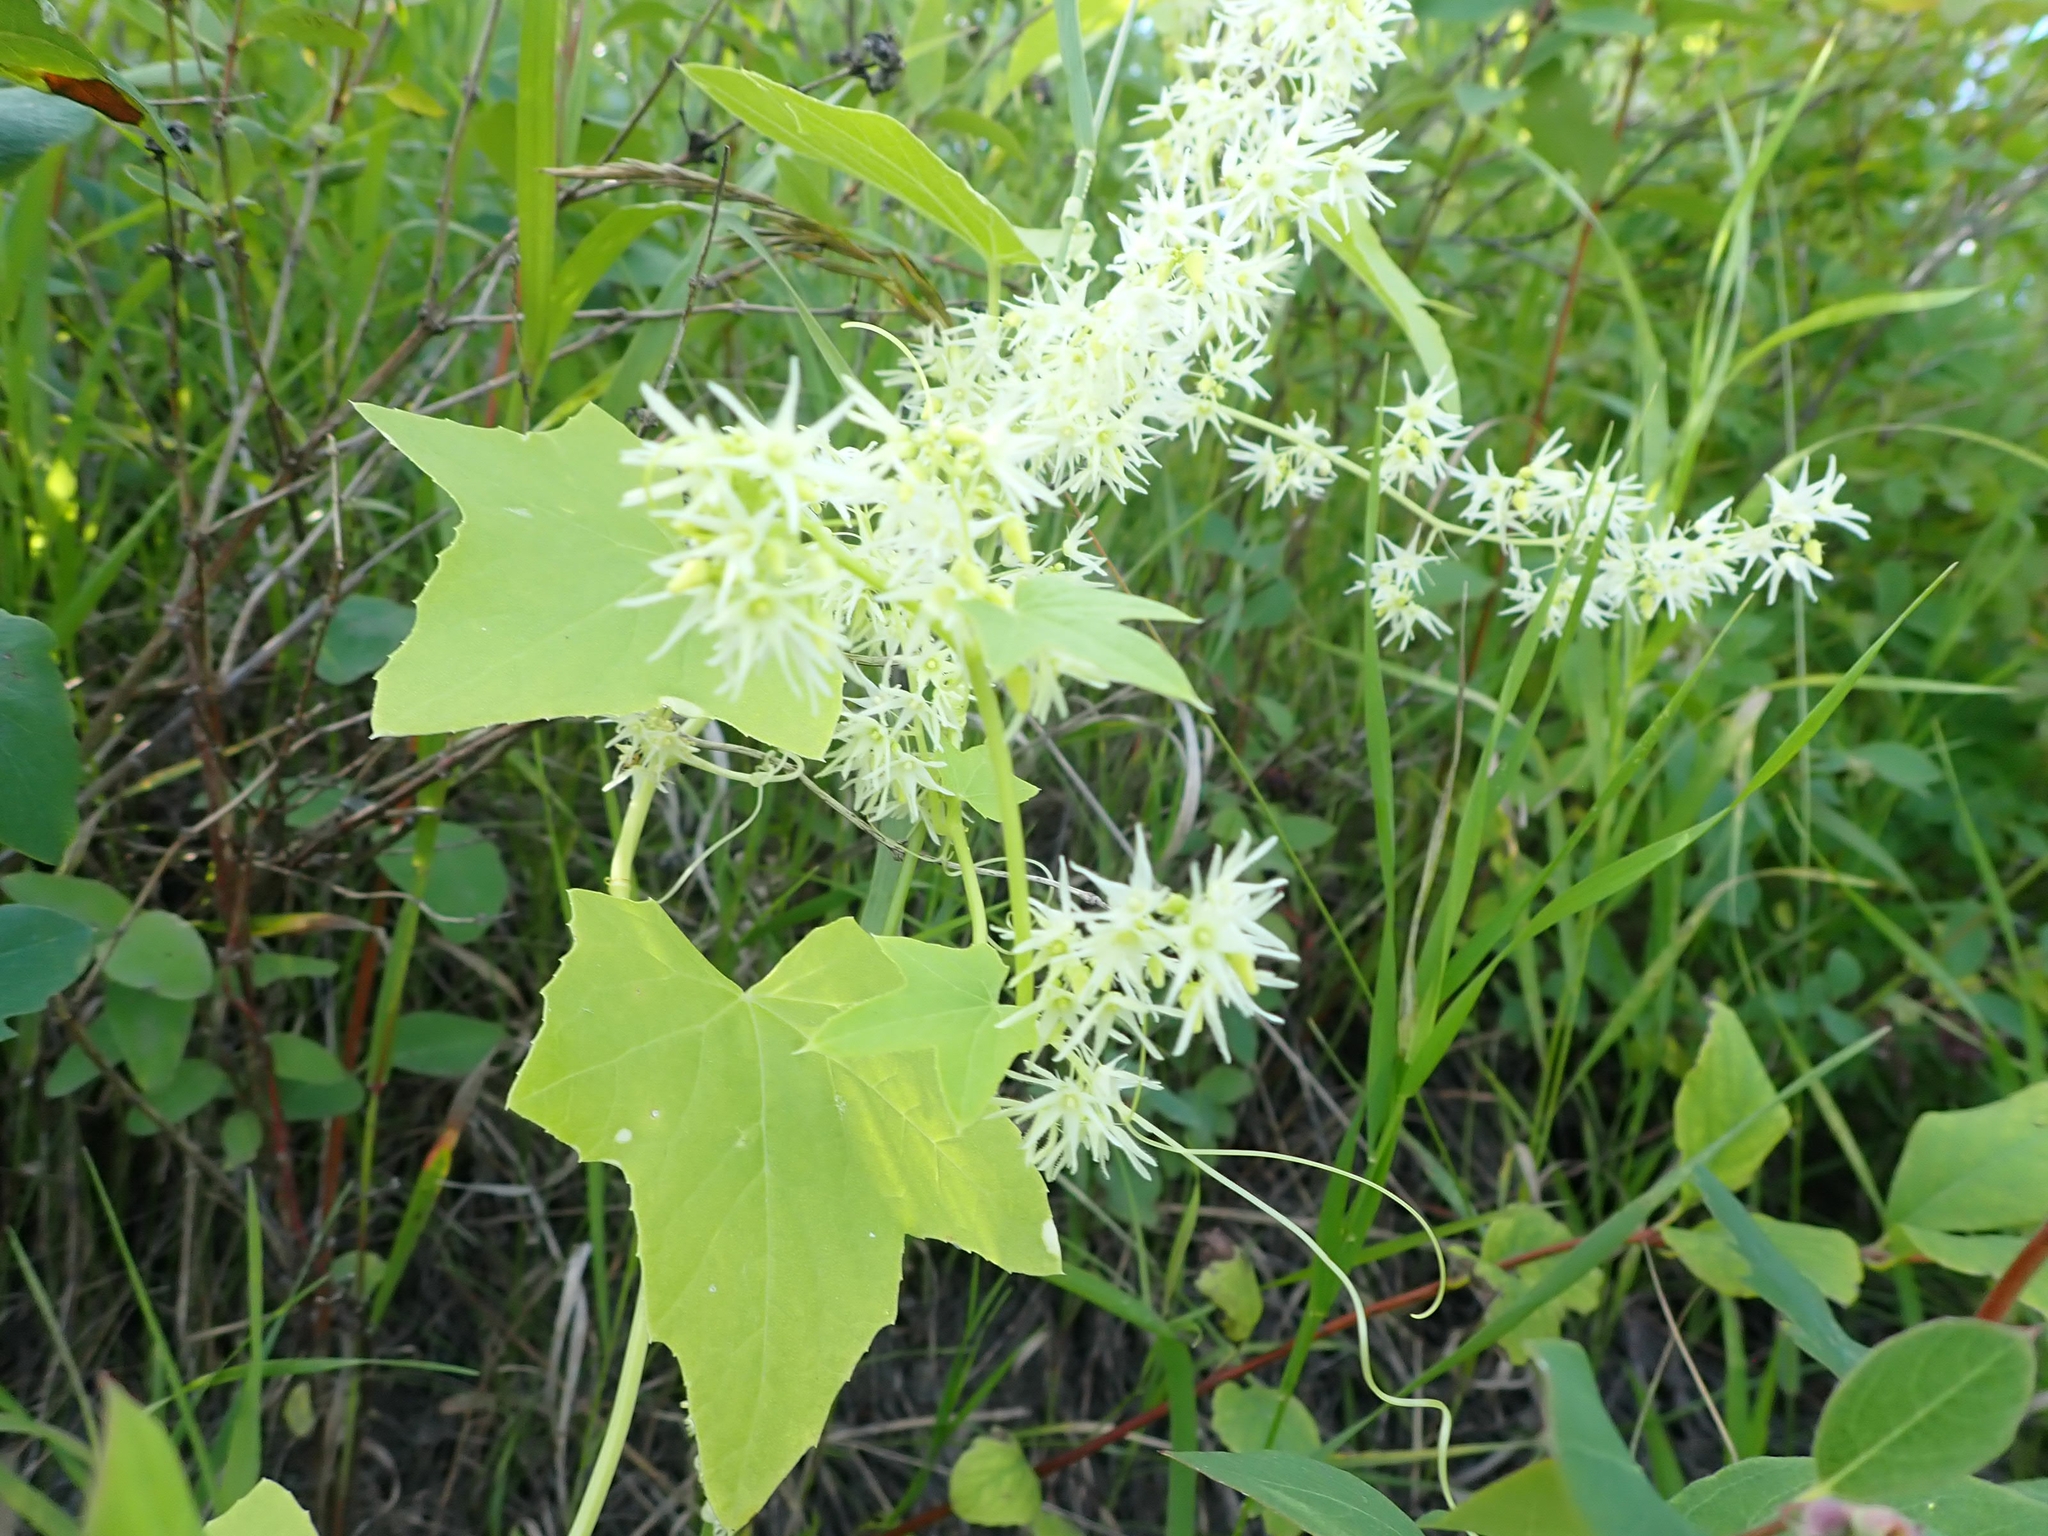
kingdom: Plantae
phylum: Tracheophyta
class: Magnoliopsida
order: Cucurbitales
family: Cucurbitaceae
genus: Echinocystis
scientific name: Echinocystis lobata
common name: Wild cucumber
